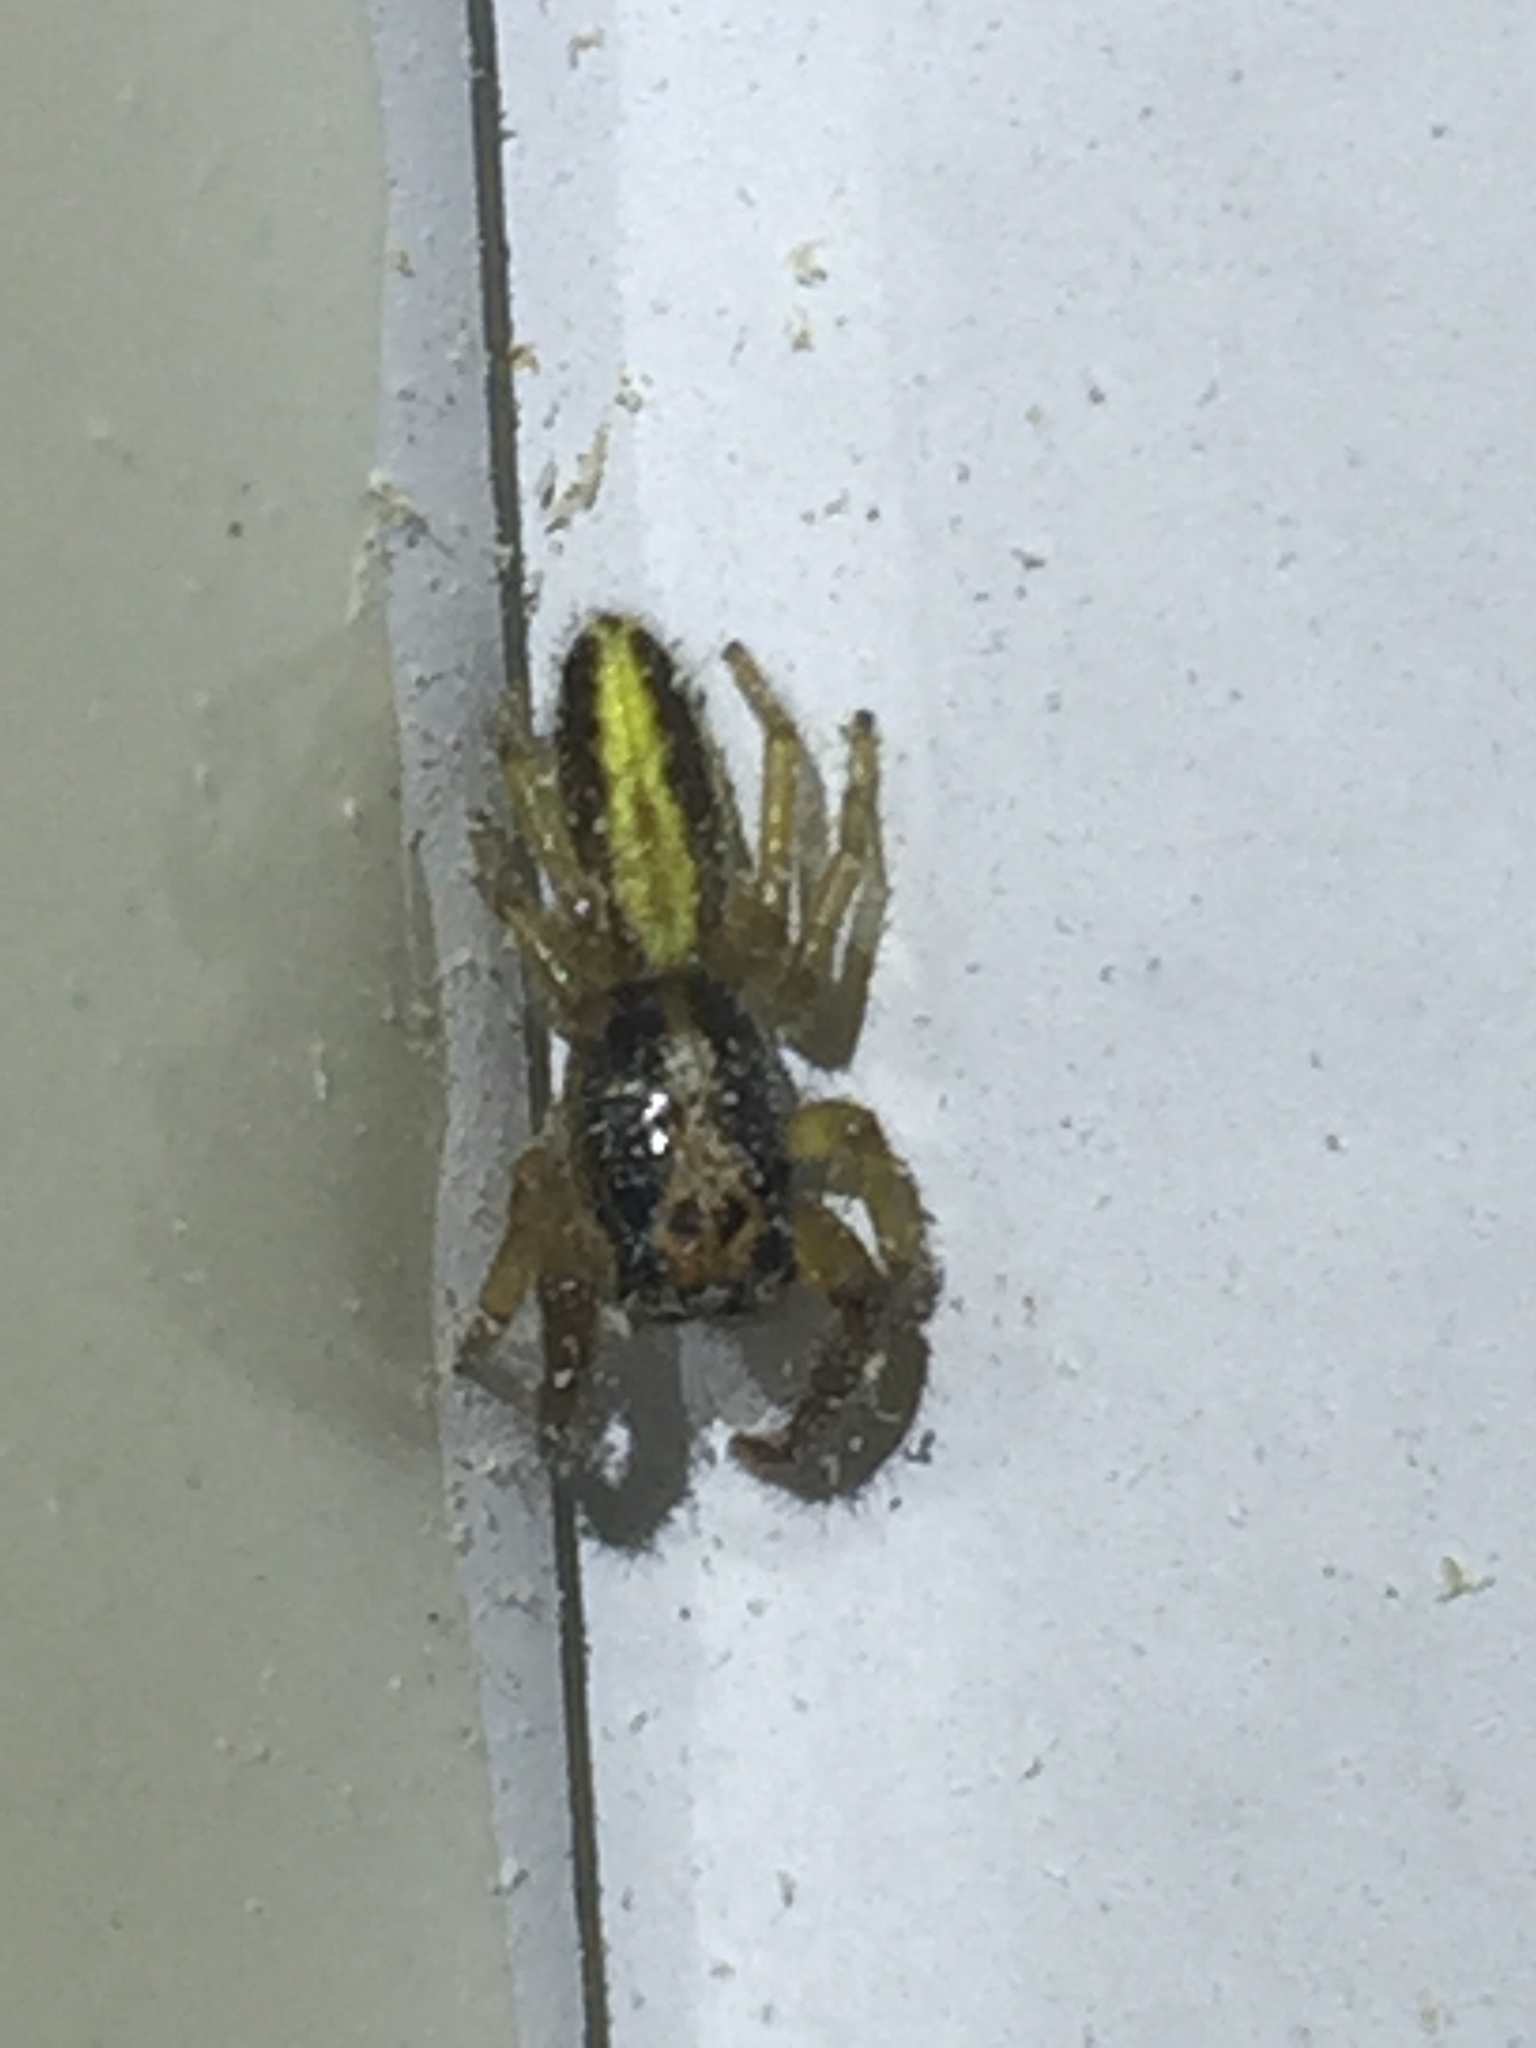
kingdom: Animalia
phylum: Arthropoda
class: Arachnida
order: Araneae
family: Salticidae
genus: Trite
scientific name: Trite planiceps
